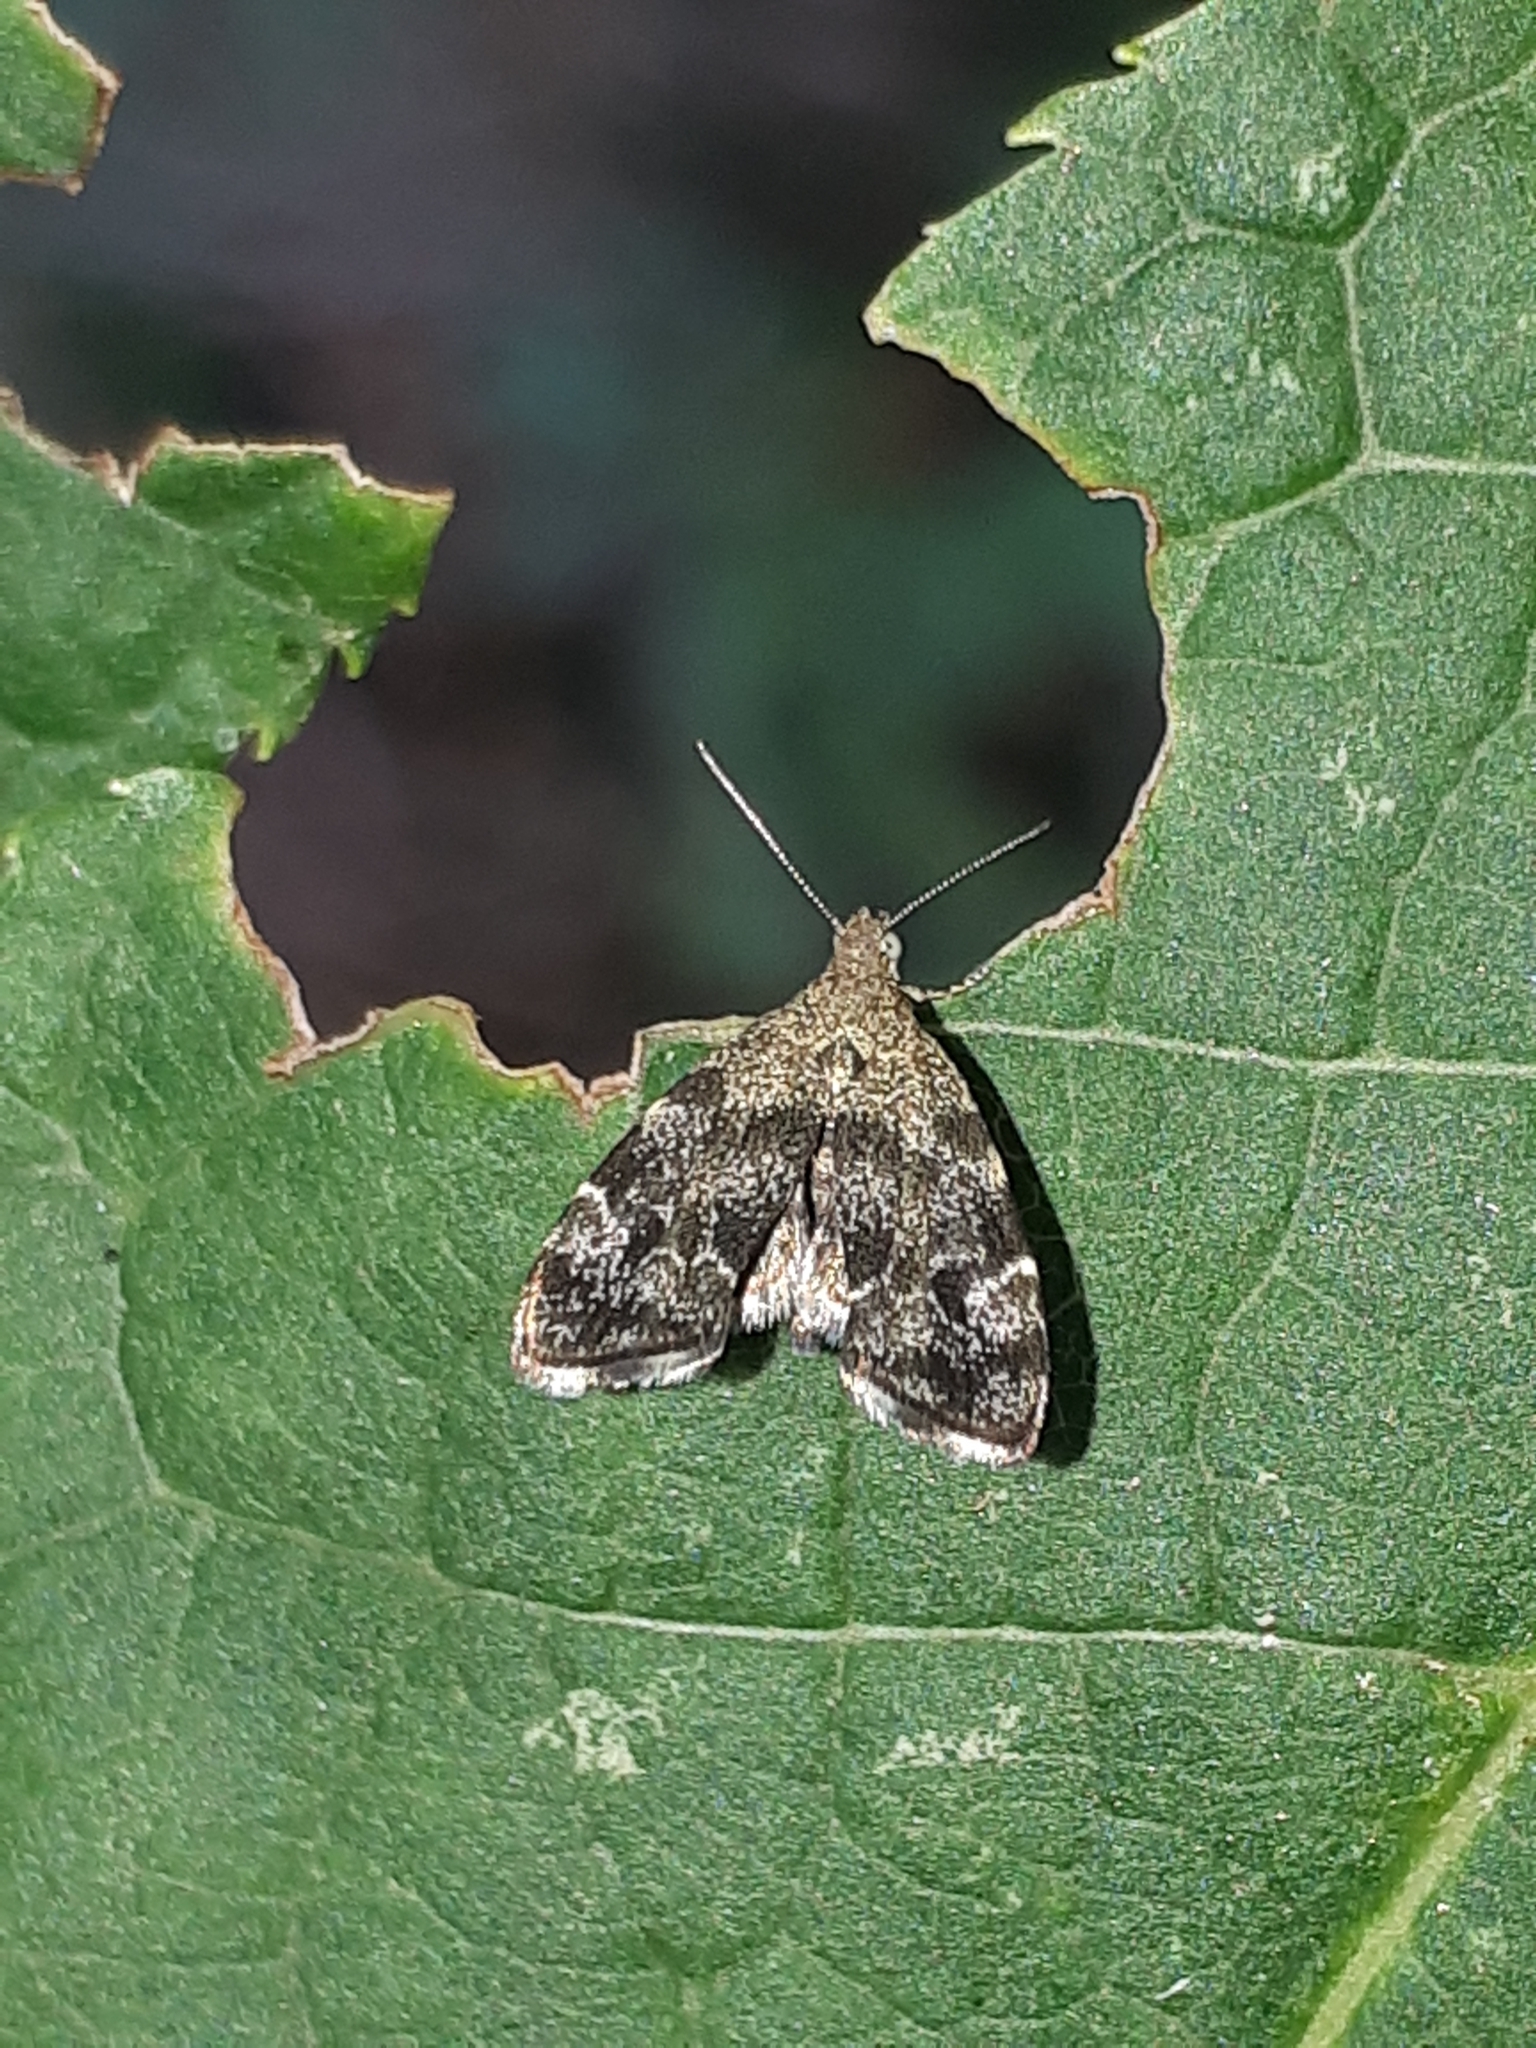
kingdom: Animalia
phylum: Arthropoda
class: Insecta
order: Lepidoptera
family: Choreutidae
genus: Anthophila
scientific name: Anthophila fabriciana
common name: Nettle-tap
